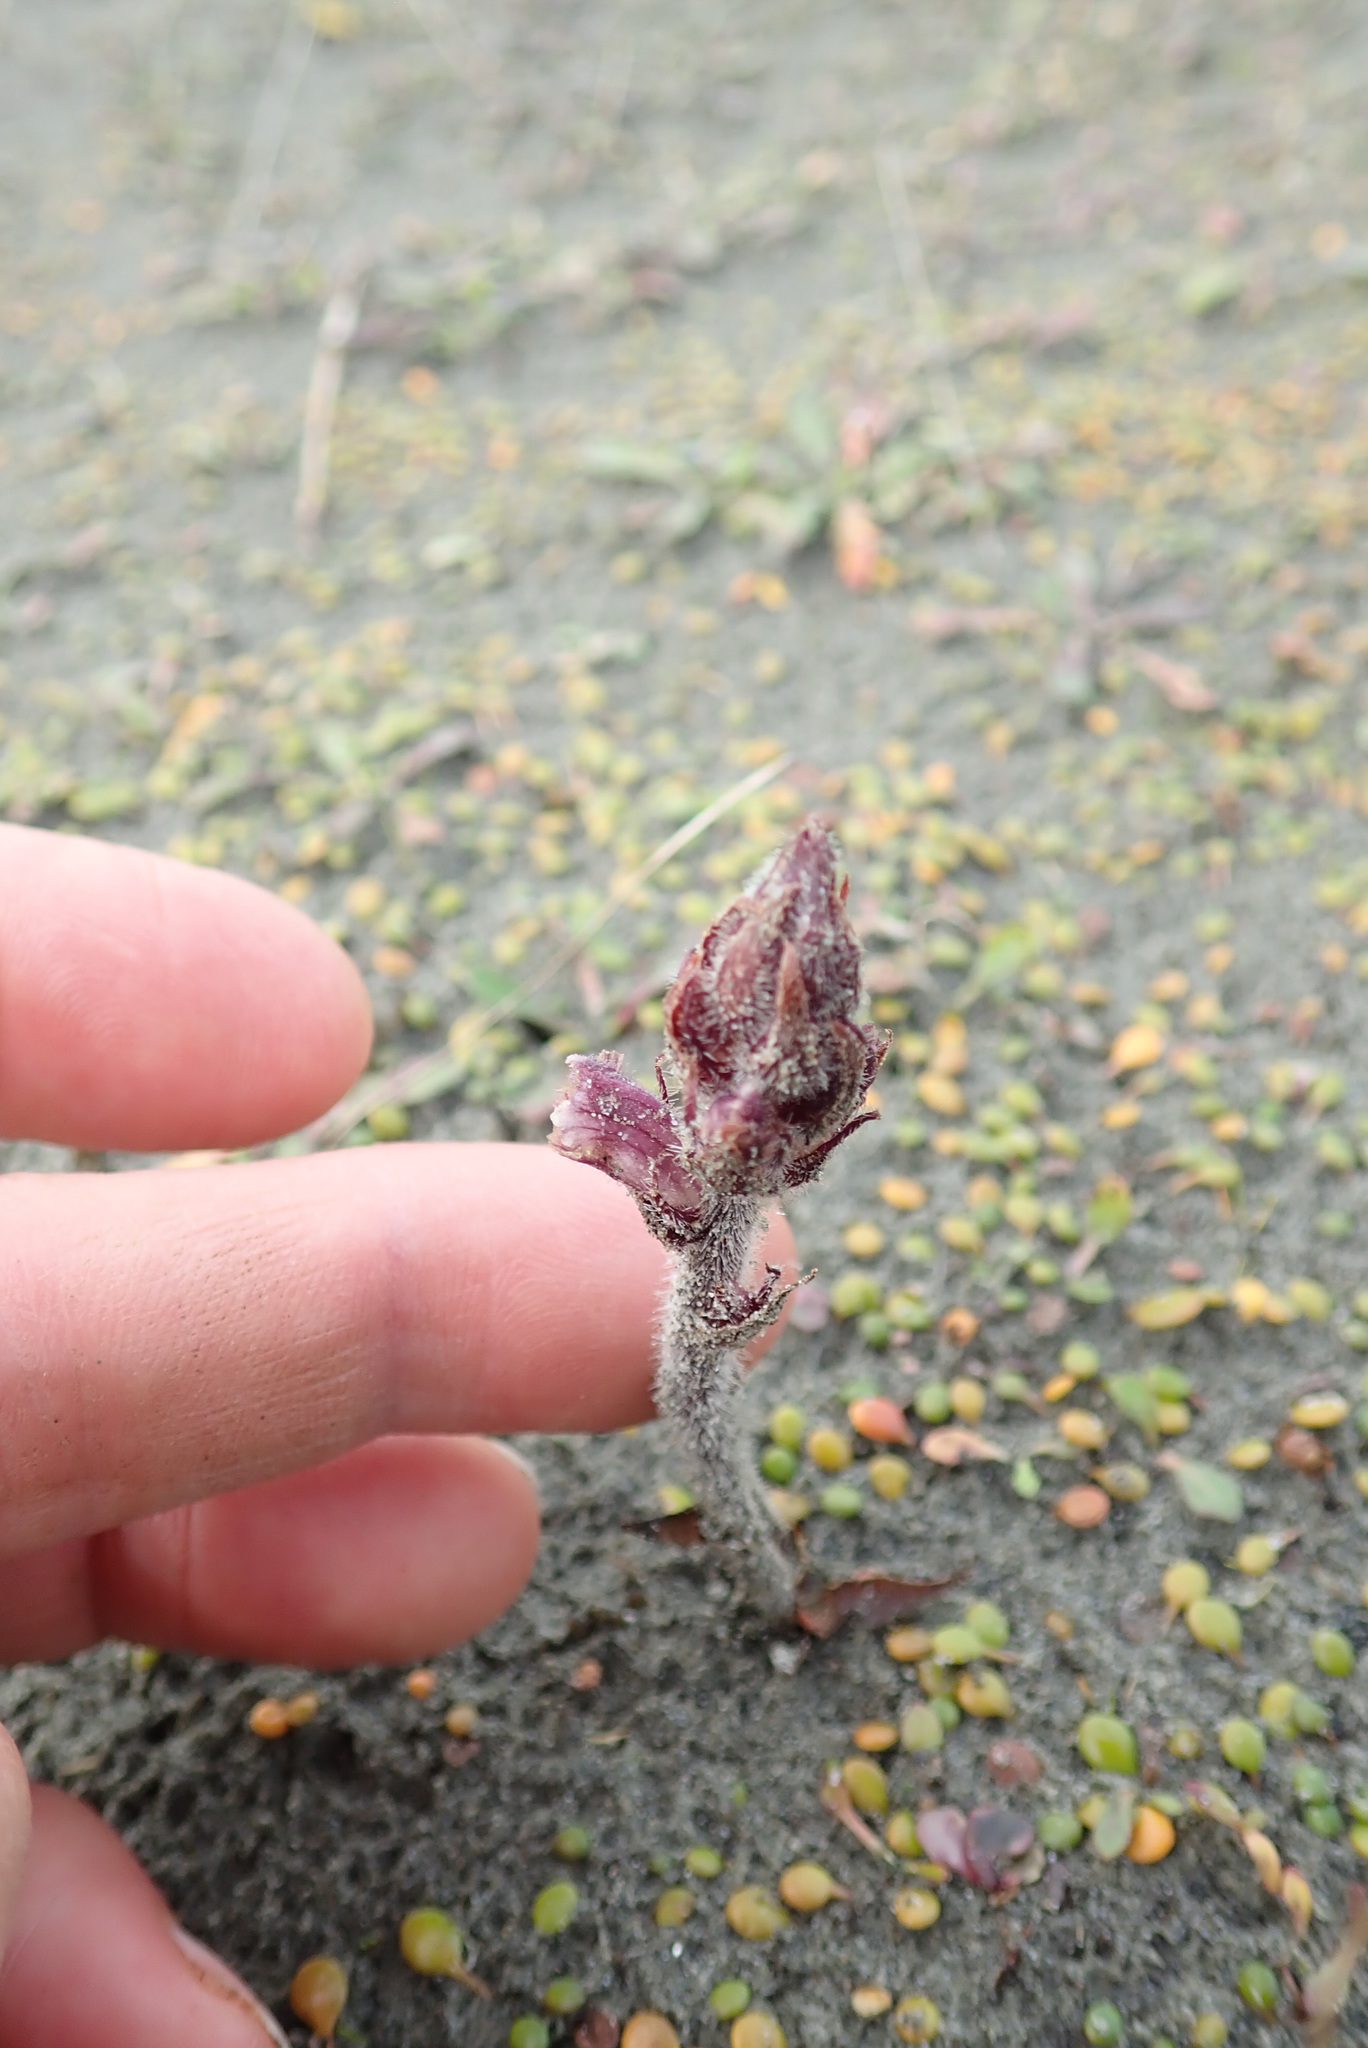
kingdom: Plantae
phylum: Tracheophyta
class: Magnoliopsida
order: Lamiales
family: Orobanchaceae
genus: Orobanche
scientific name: Orobanche minor
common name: Common broomrape
